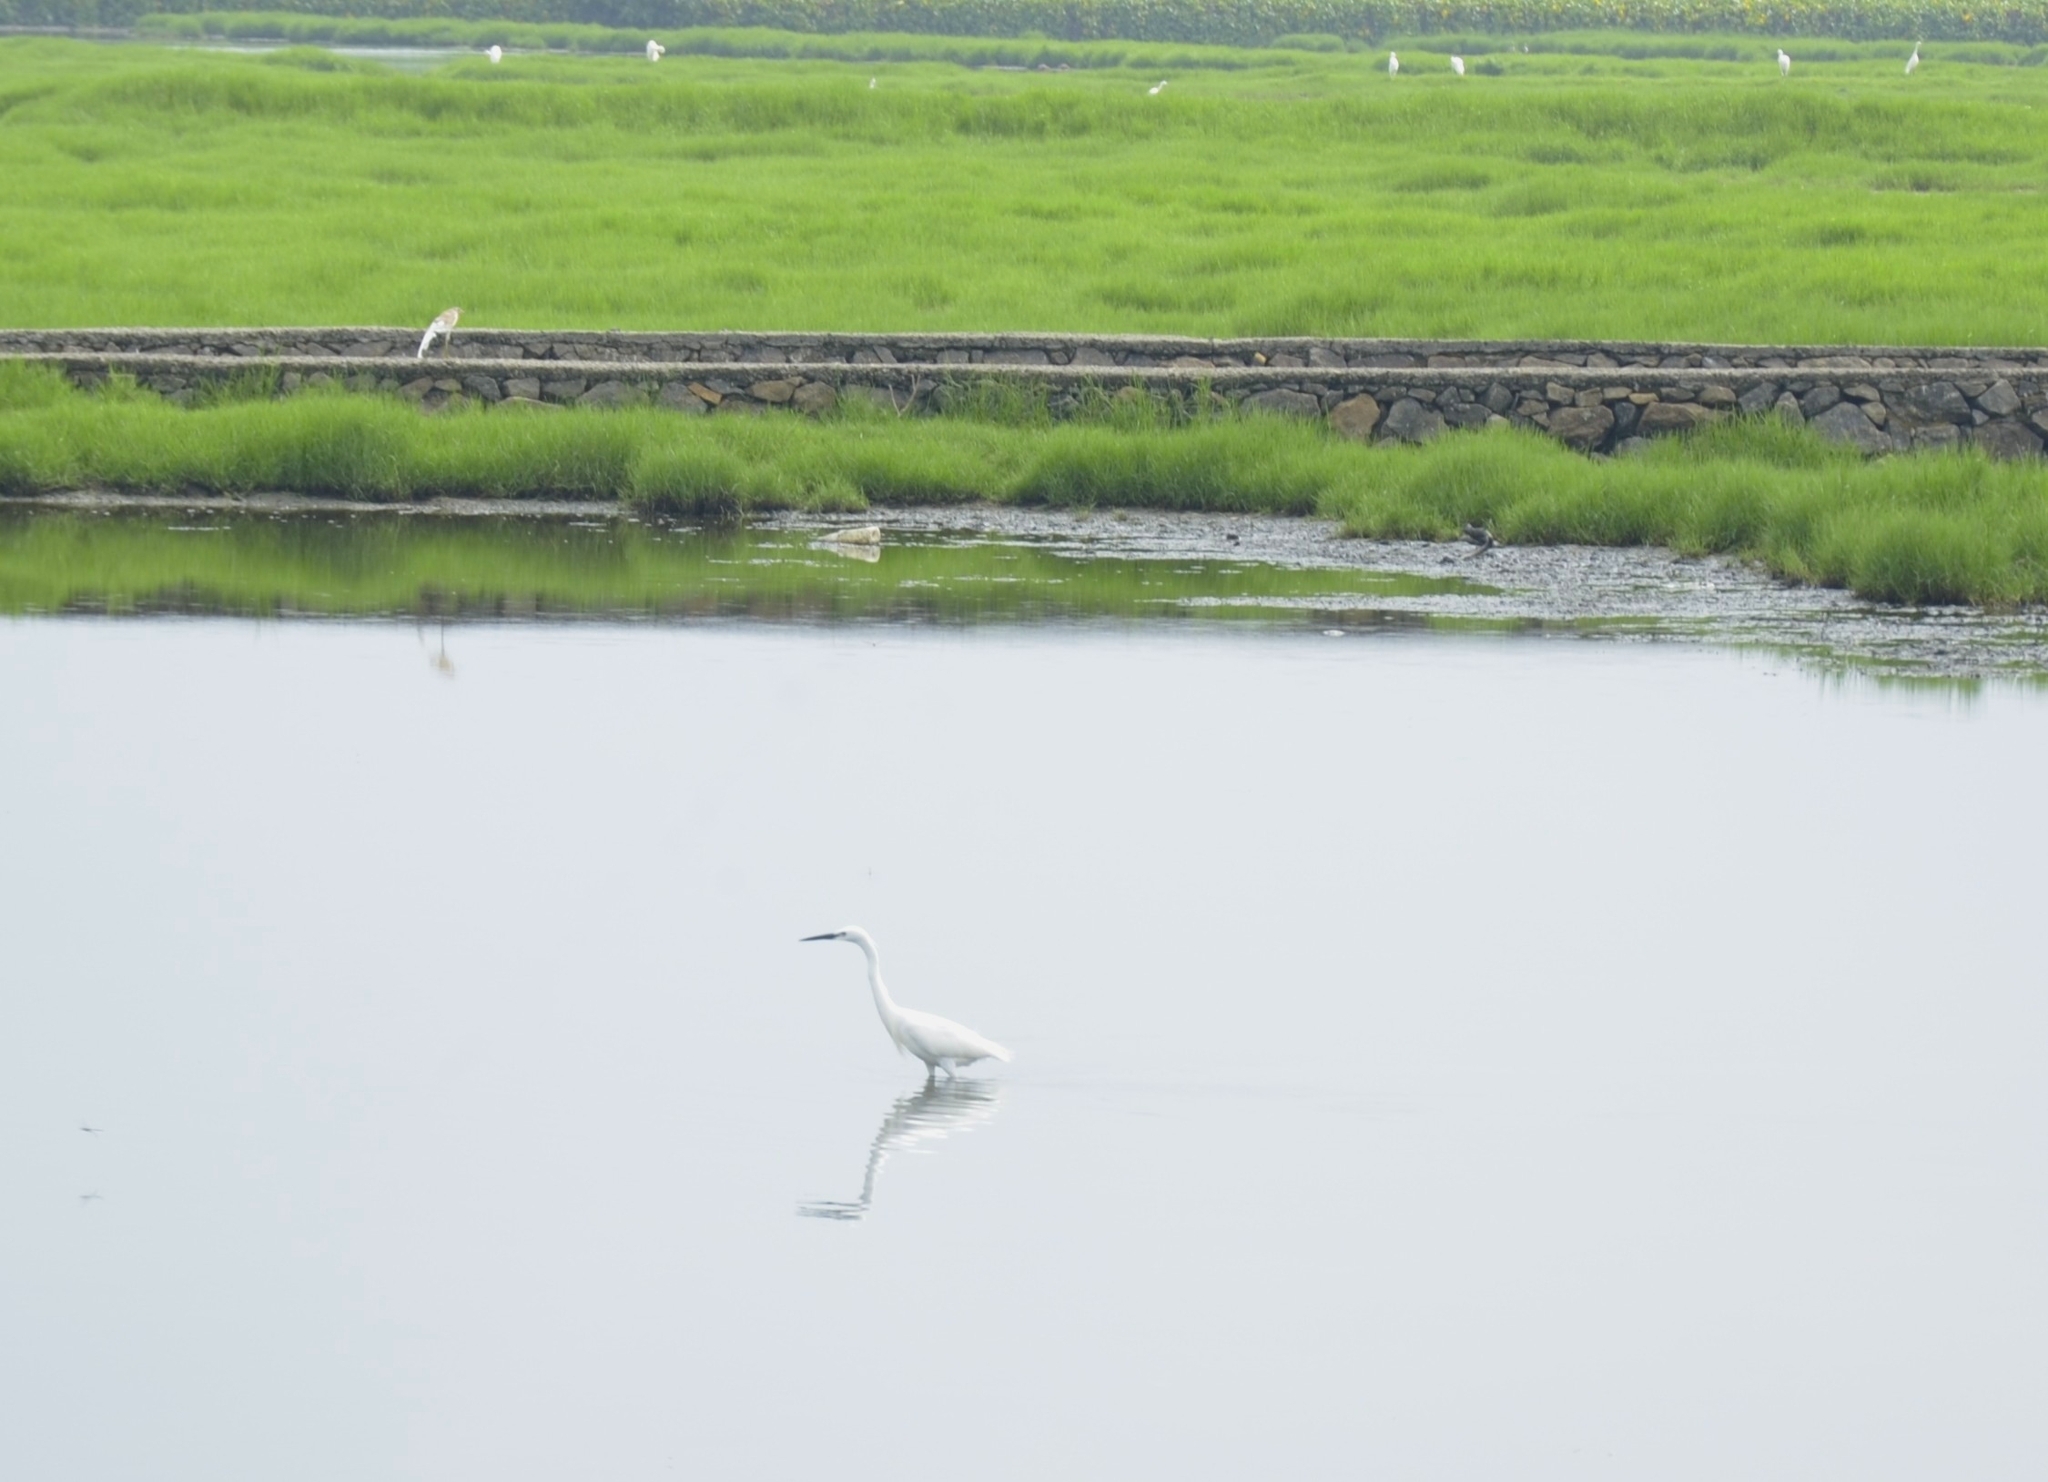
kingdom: Animalia
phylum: Chordata
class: Aves
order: Pelecaniformes
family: Ardeidae
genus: Egretta
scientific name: Egretta garzetta
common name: Little egret
